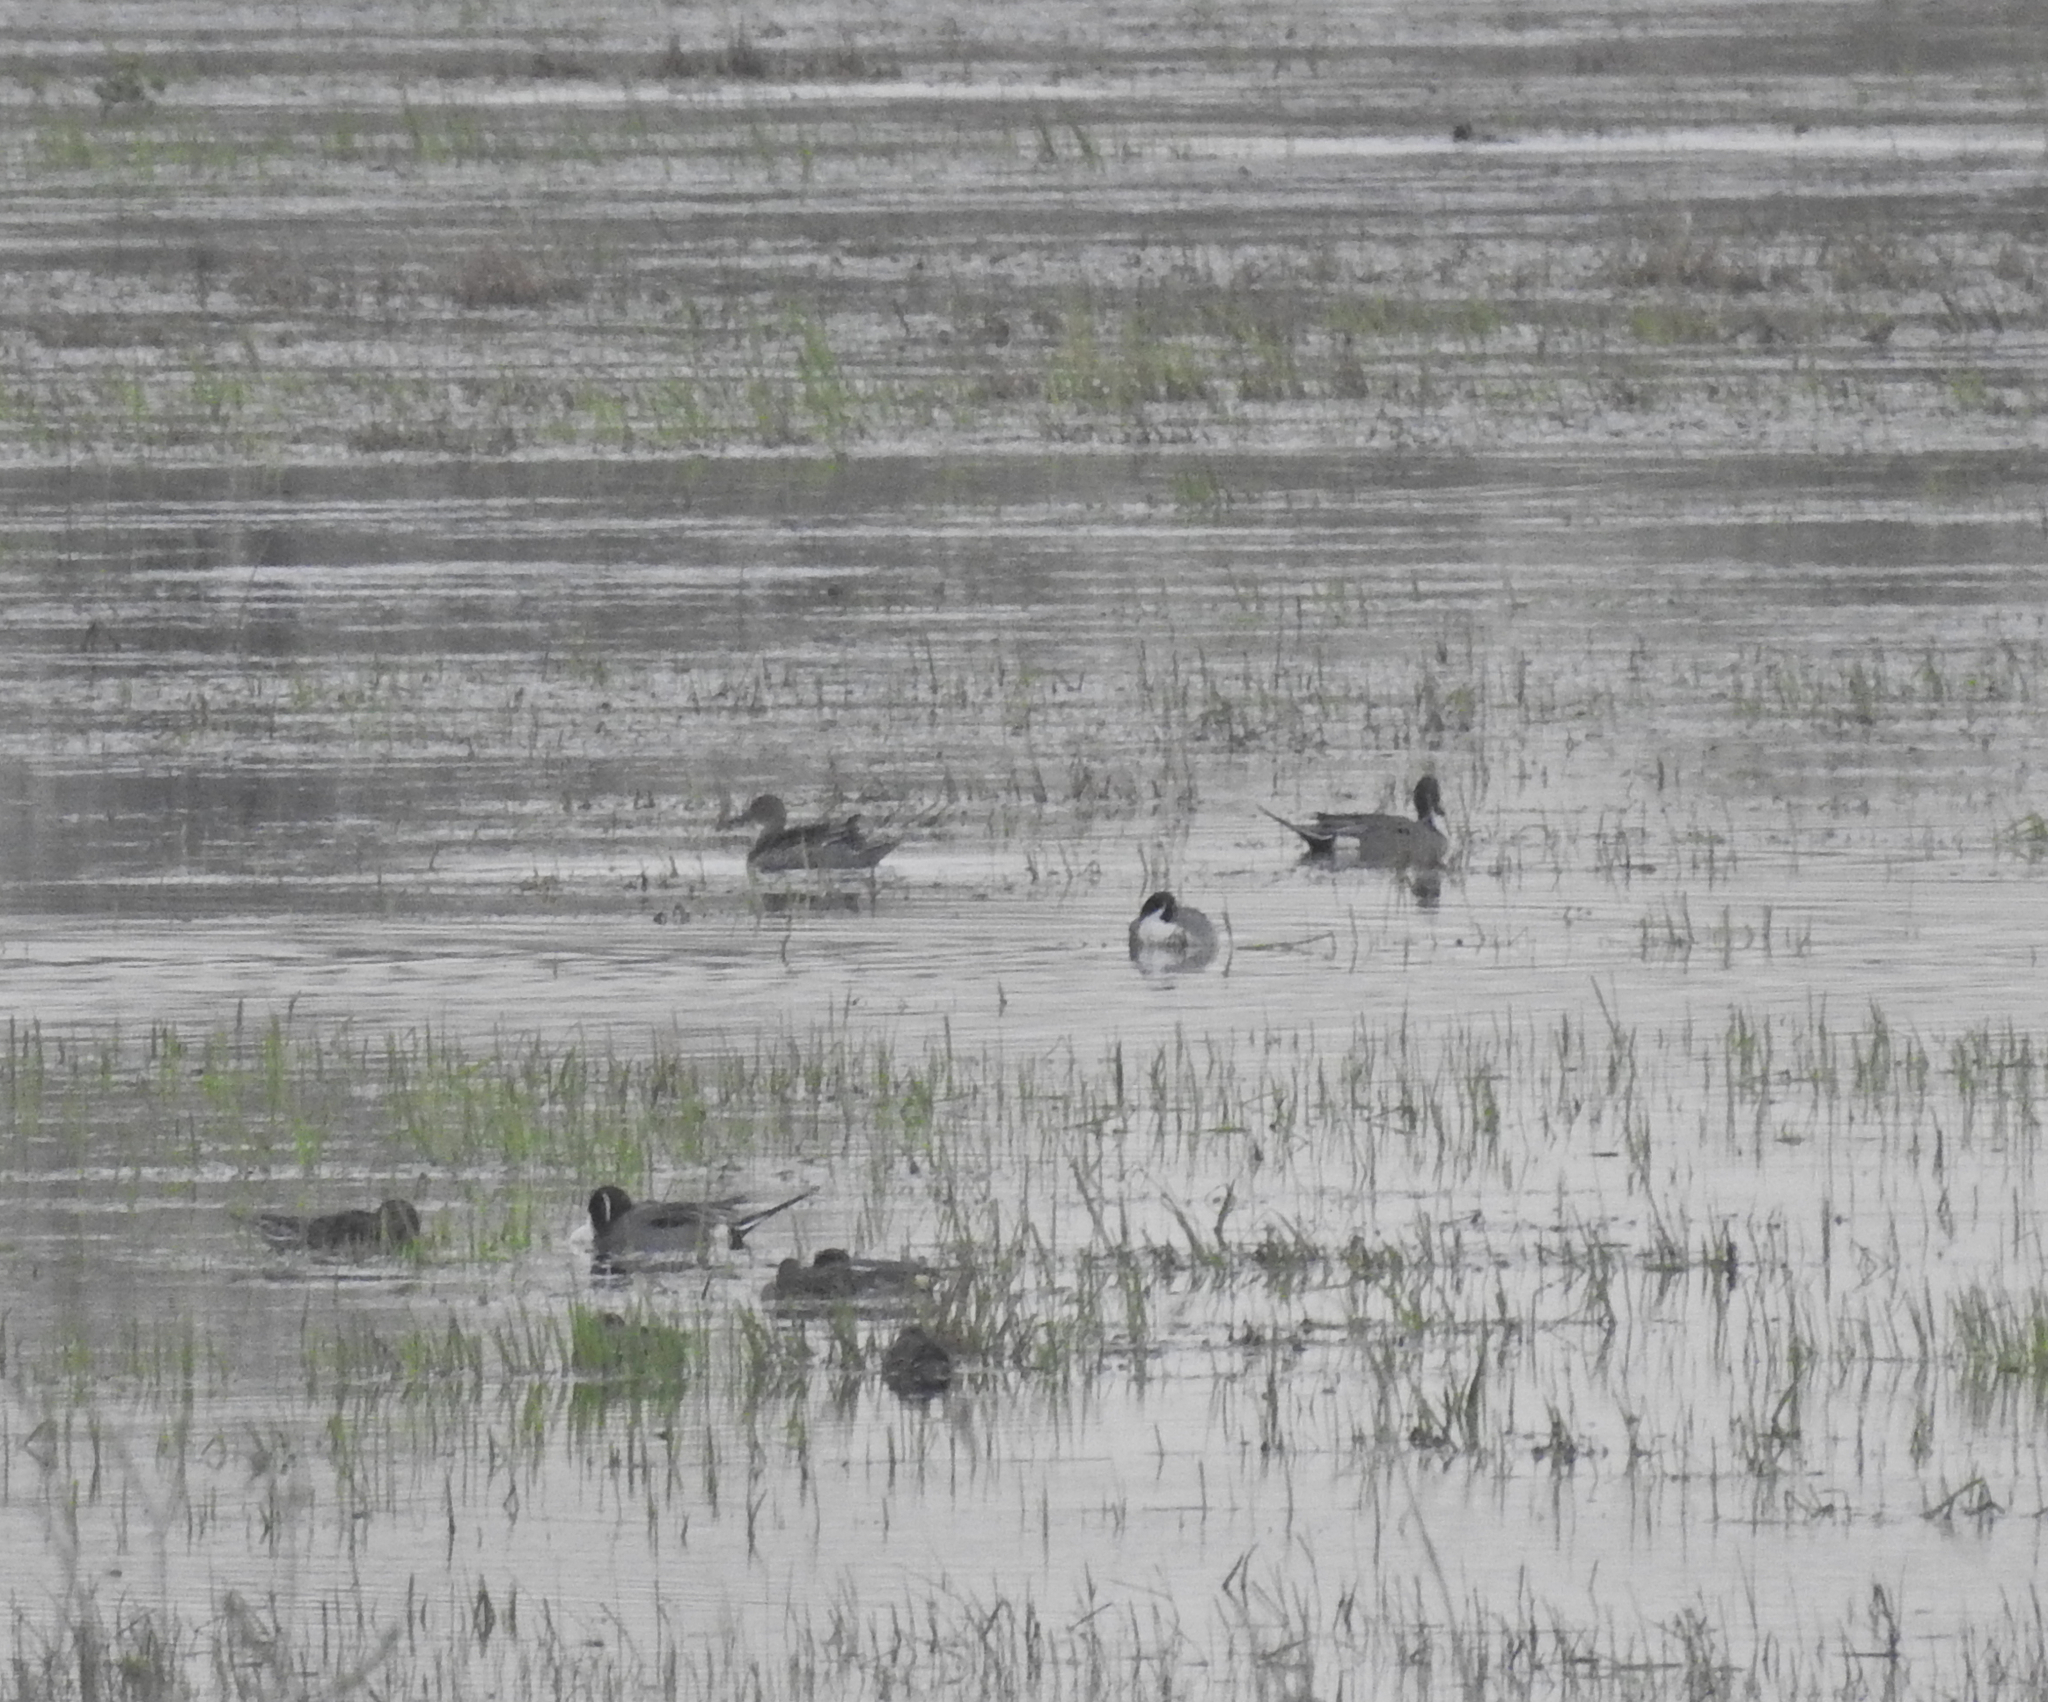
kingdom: Animalia
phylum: Chordata
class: Aves
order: Anseriformes
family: Anatidae
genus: Anas
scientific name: Anas acuta
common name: Northern pintail
